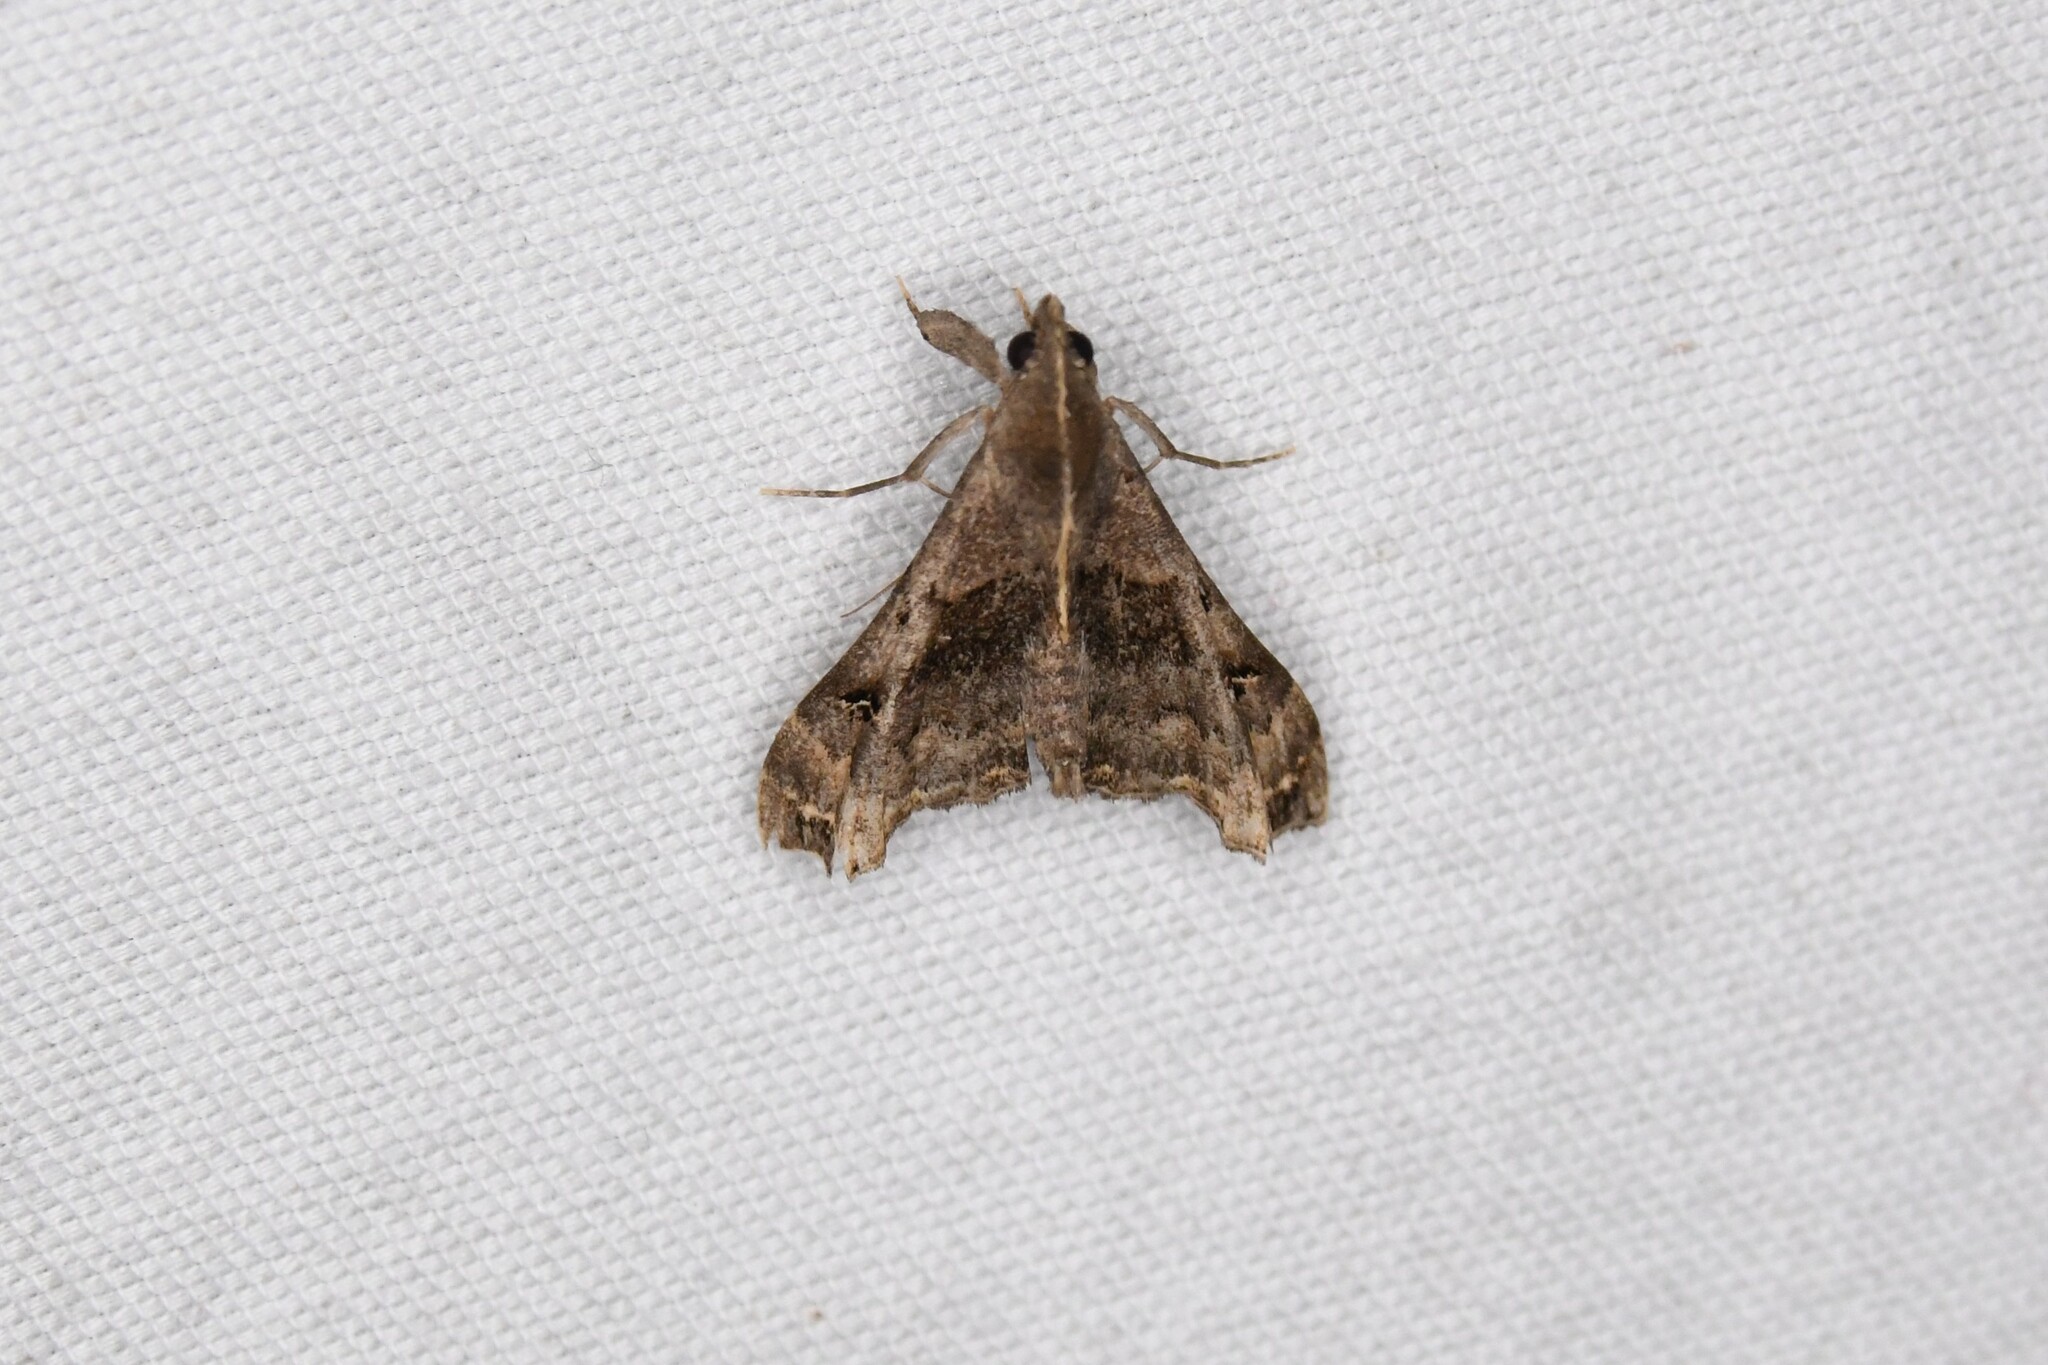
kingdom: Animalia
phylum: Arthropoda
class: Insecta
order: Lepidoptera
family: Erebidae
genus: Palthis
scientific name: Palthis asopialis
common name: Faint-spotted palthis moth
